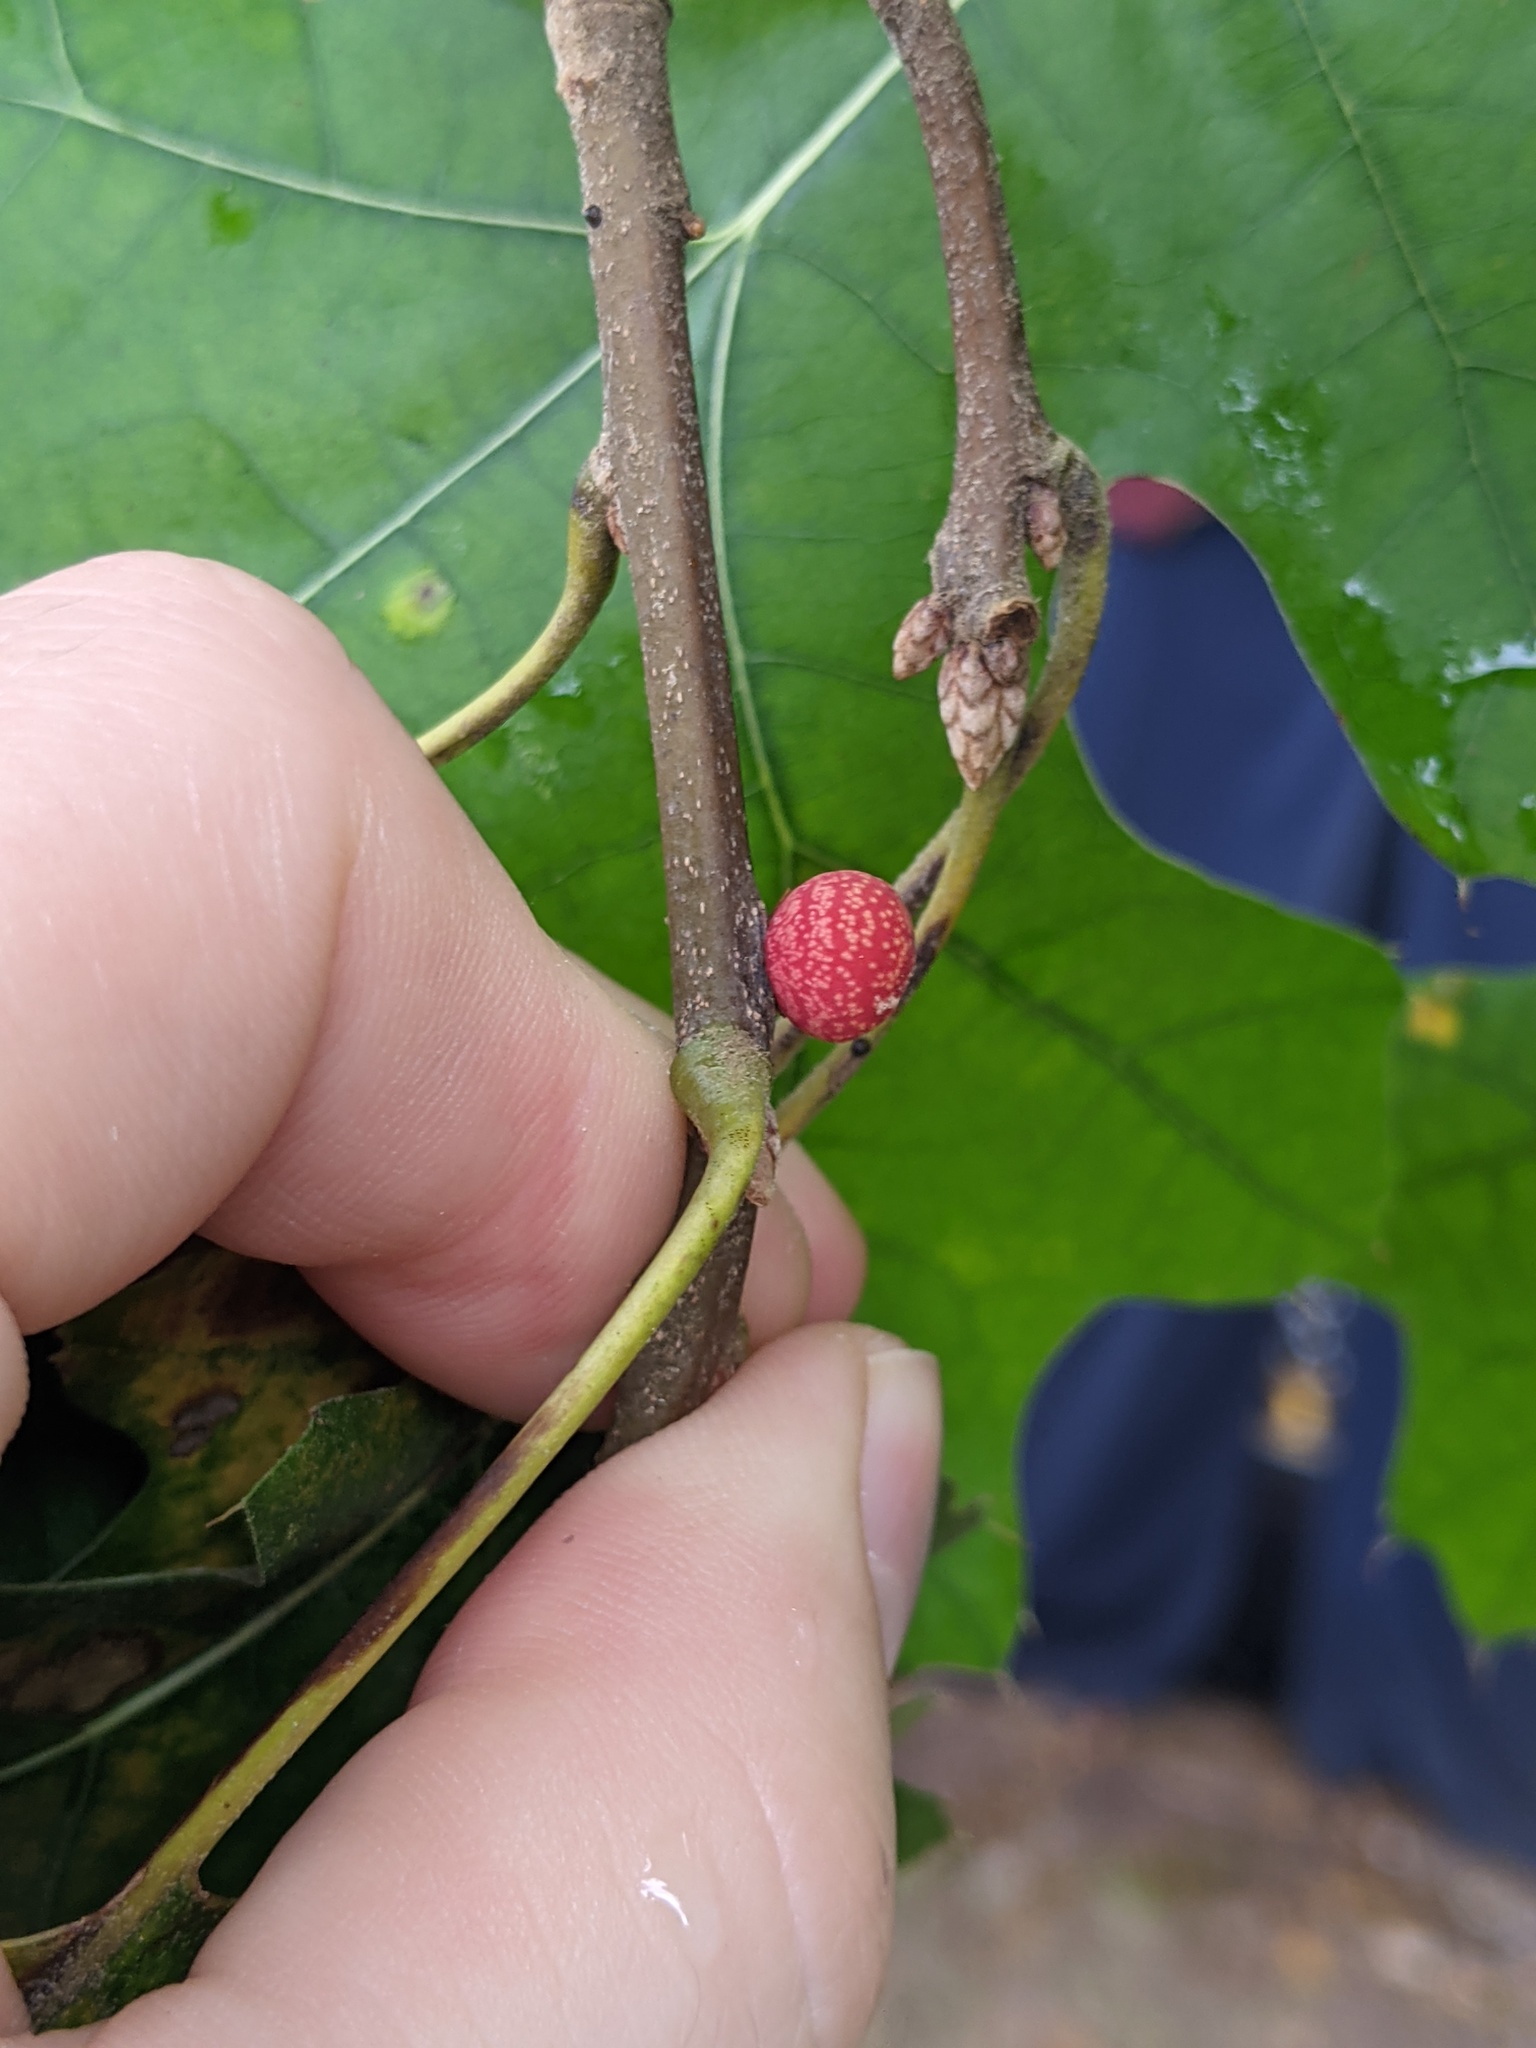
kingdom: Animalia
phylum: Arthropoda
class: Insecta
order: Hymenoptera
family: Cynipidae
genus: Kokkocynips
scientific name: Kokkocynips imbricariae
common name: Banded bullet gall wasp
